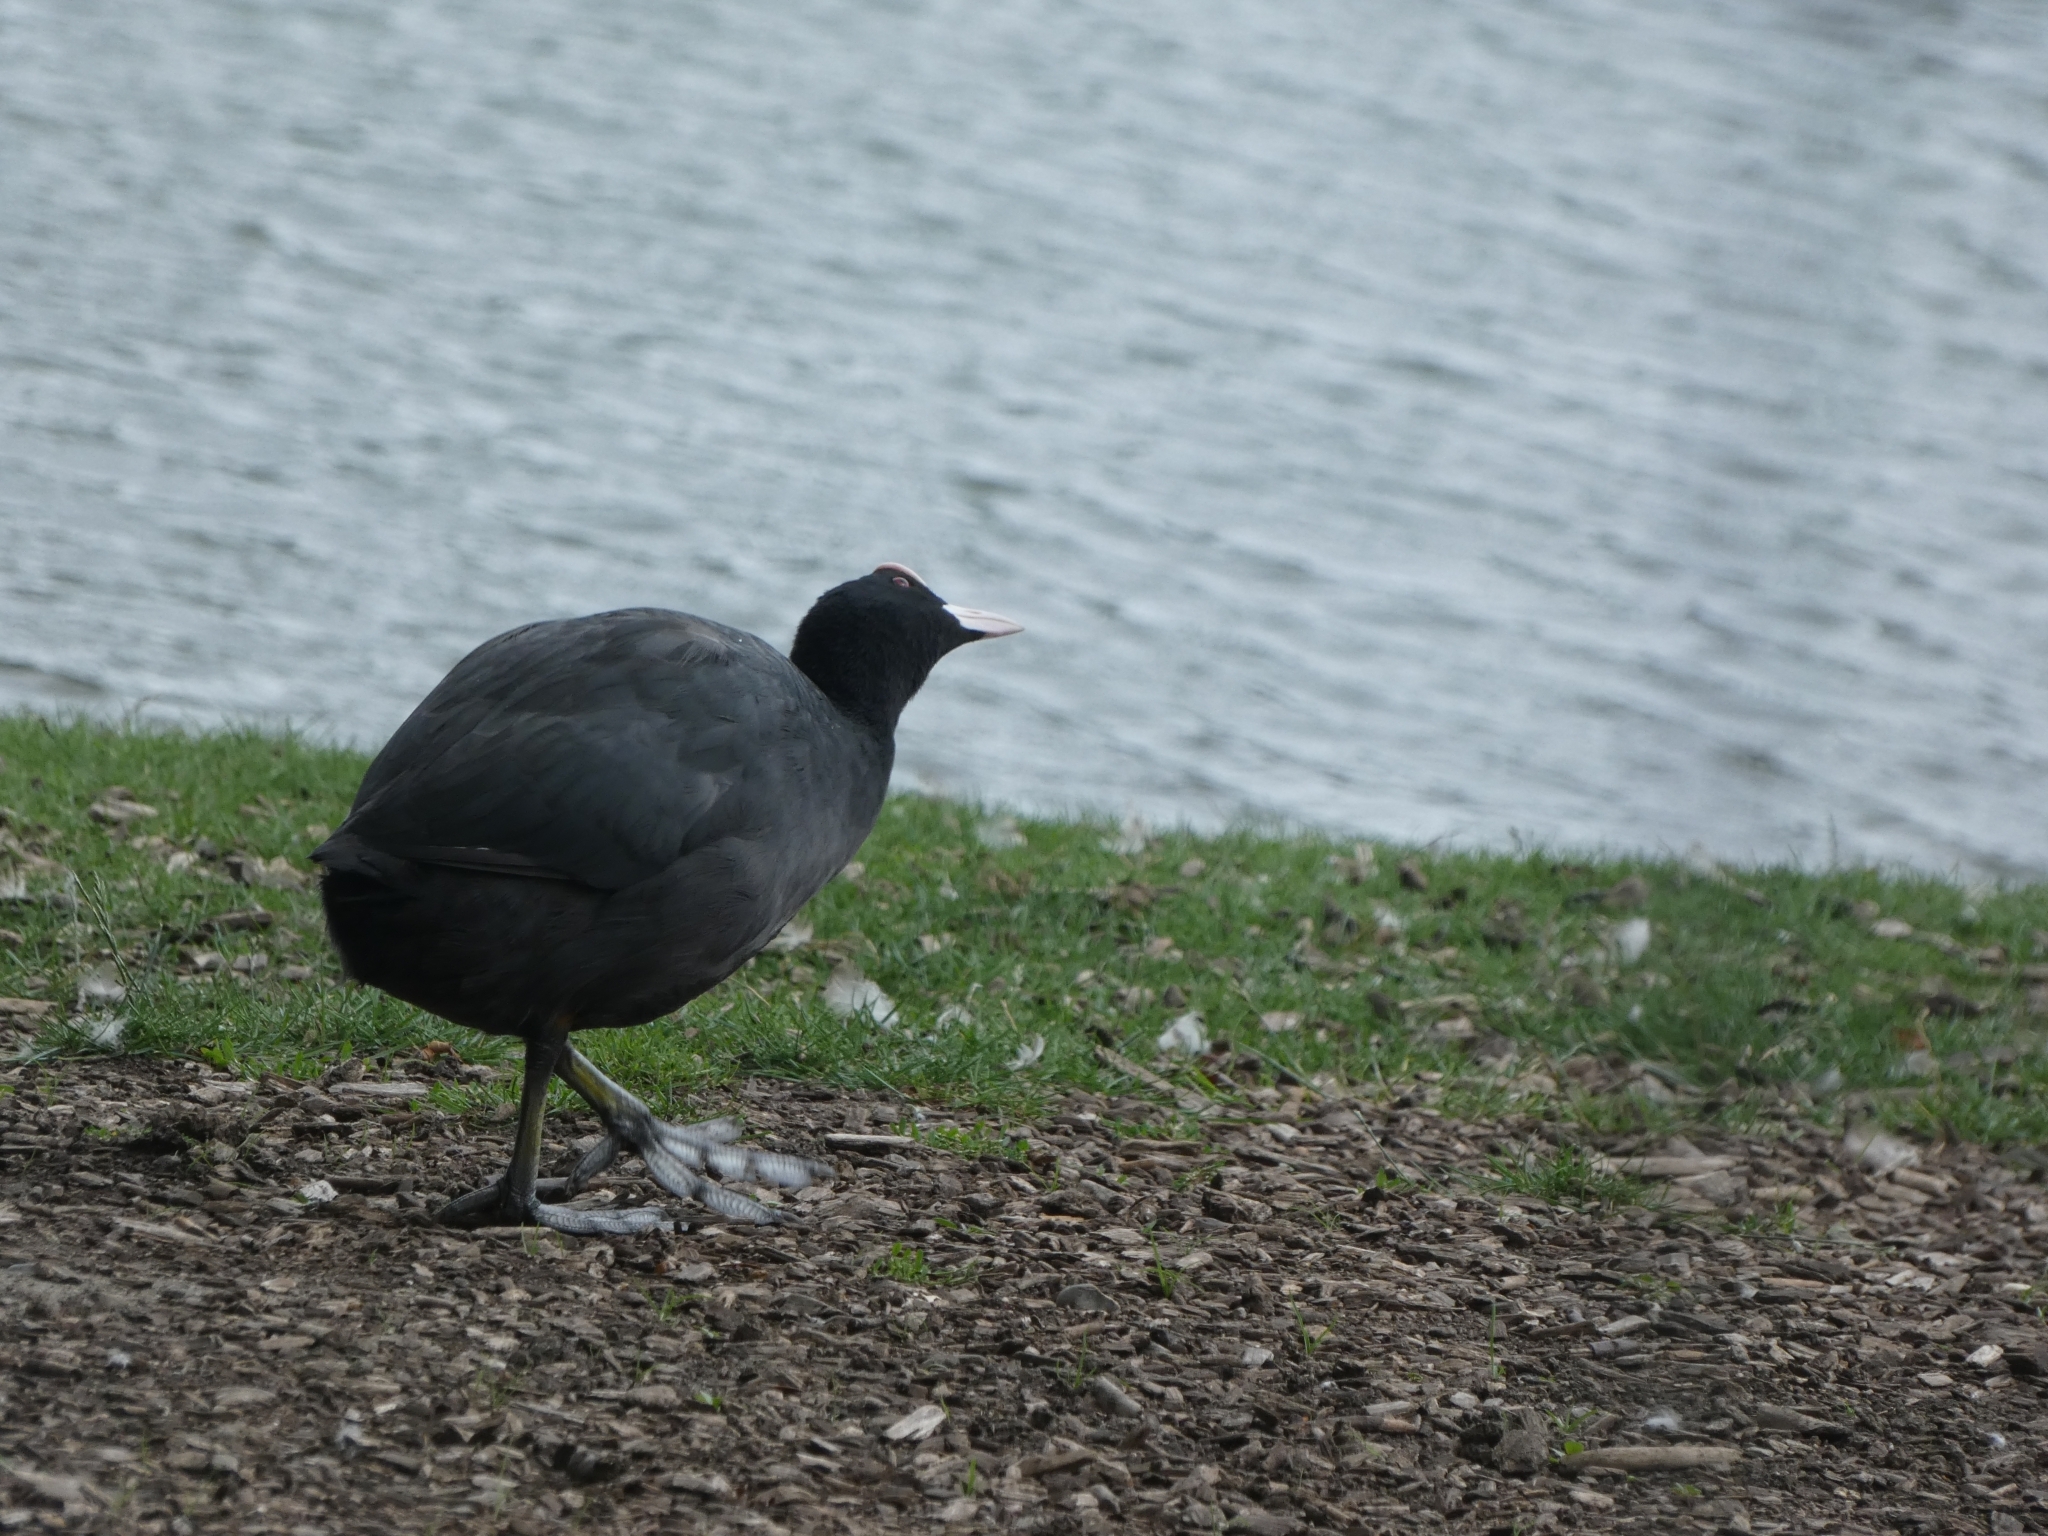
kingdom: Animalia
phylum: Chordata
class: Aves
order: Gruiformes
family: Rallidae
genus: Fulica
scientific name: Fulica atra
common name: Eurasian coot
